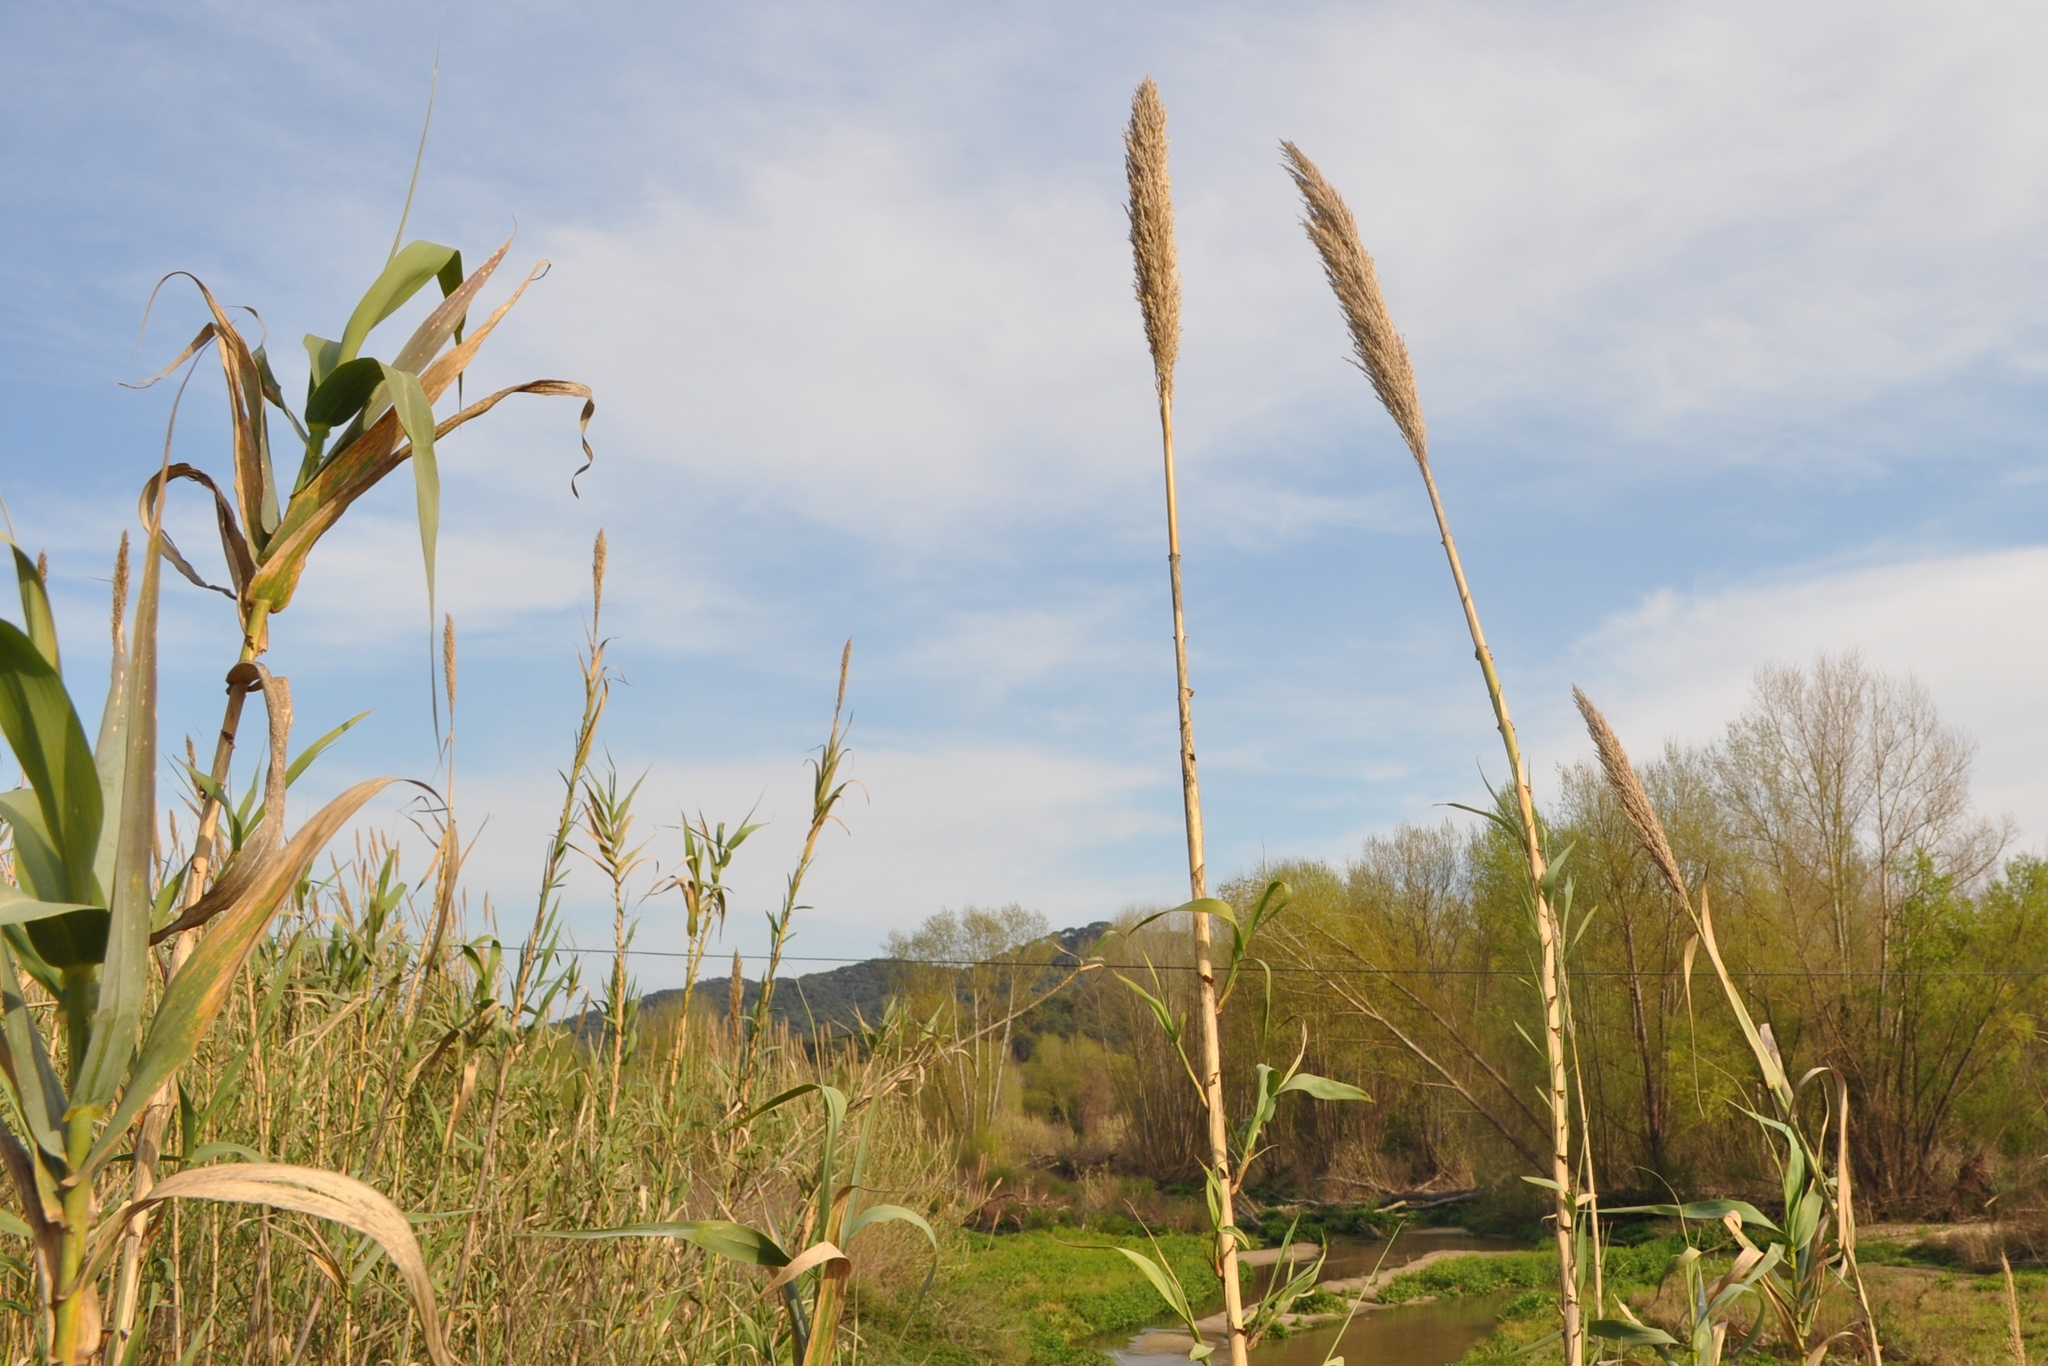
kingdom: Plantae
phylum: Tracheophyta
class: Liliopsida
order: Poales
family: Poaceae
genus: Arundo
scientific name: Arundo donax
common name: Giant reed
